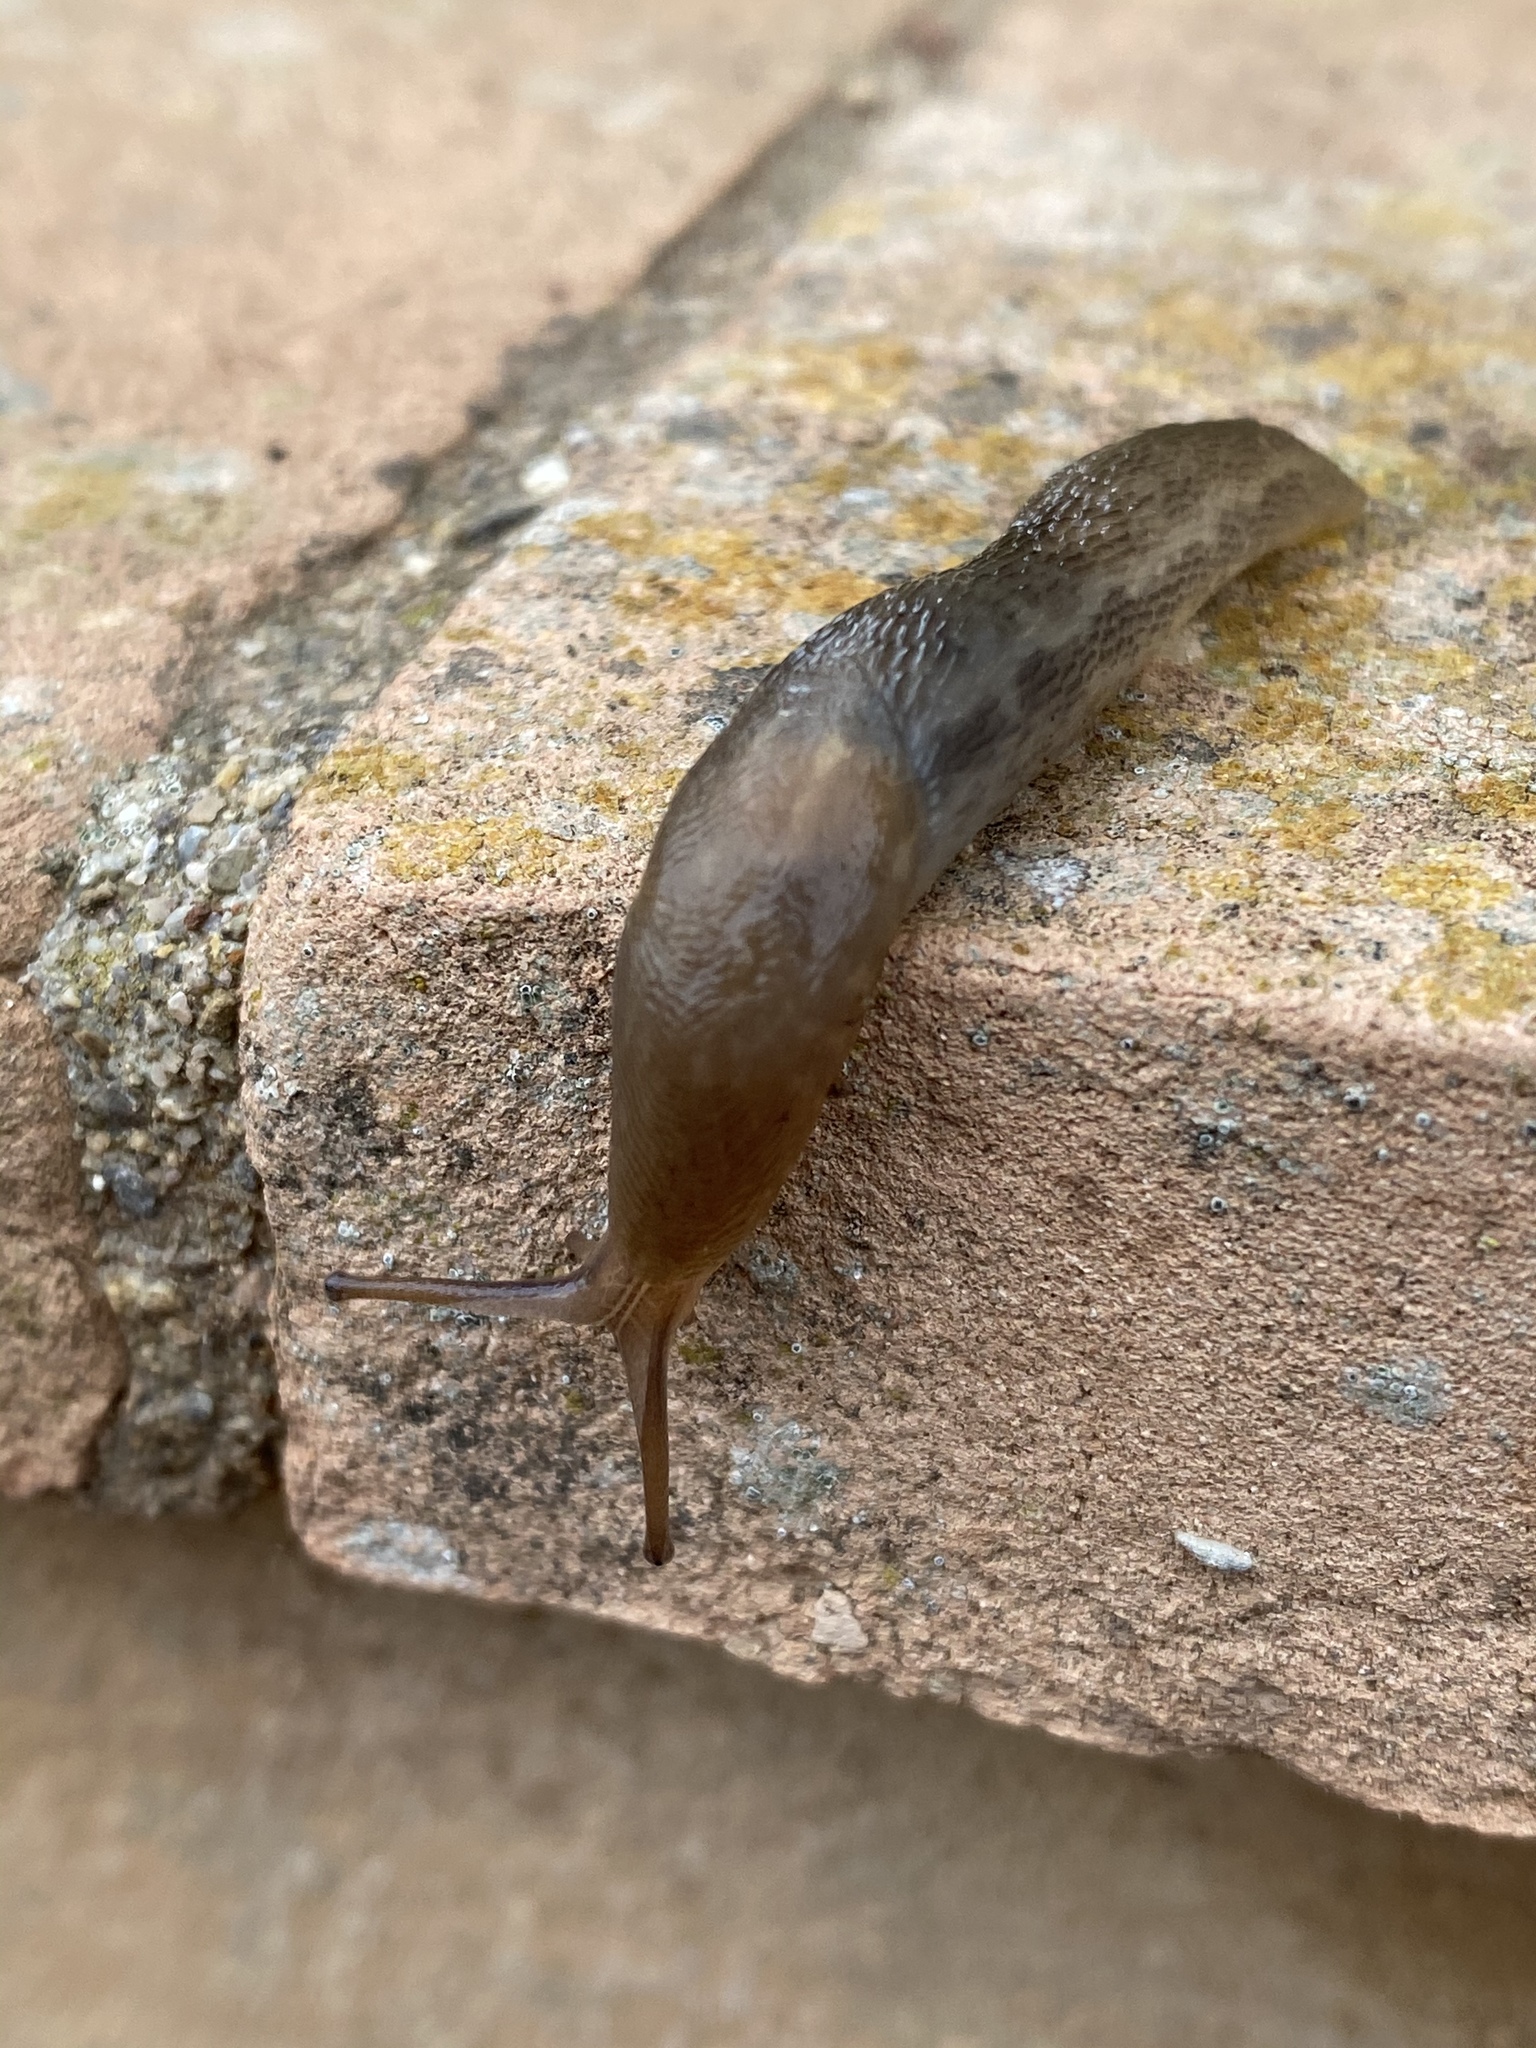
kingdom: Animalia
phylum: Mollusca
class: Gastropoda
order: Stylommatophora
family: Limacidae
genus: Limax
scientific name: Limax corsicus
